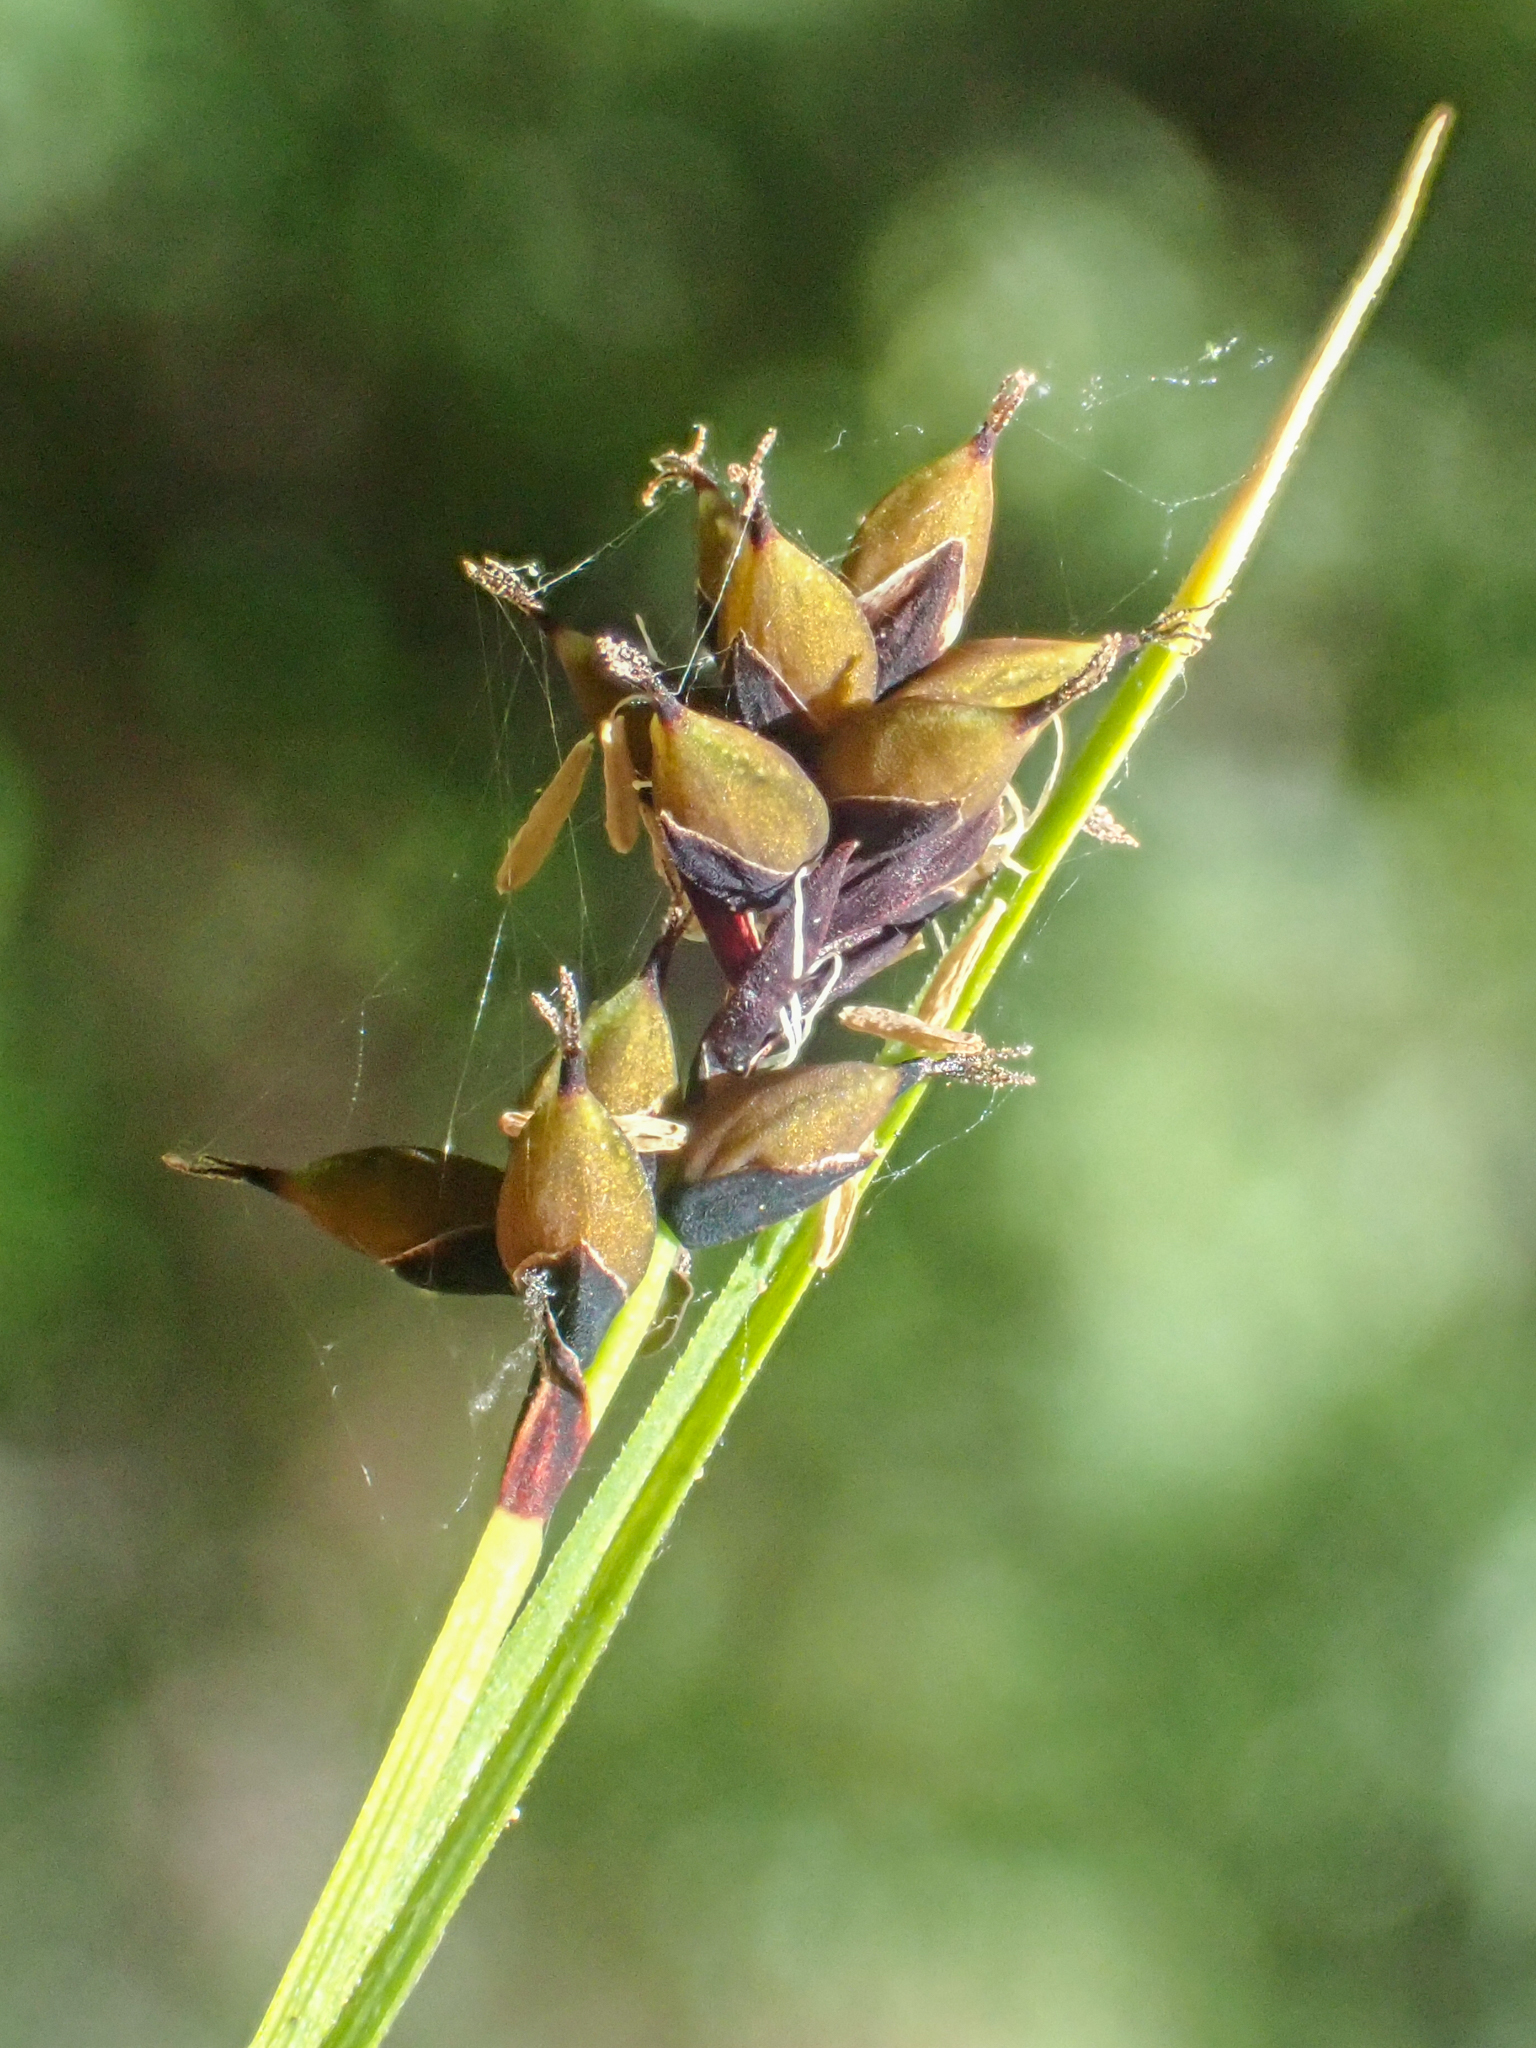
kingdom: Plantae
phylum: Tracheophyta
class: Liliopsida
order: Poales
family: Cyperaceae
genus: Carex
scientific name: Carex atrosquama
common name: Black-scale sedge
